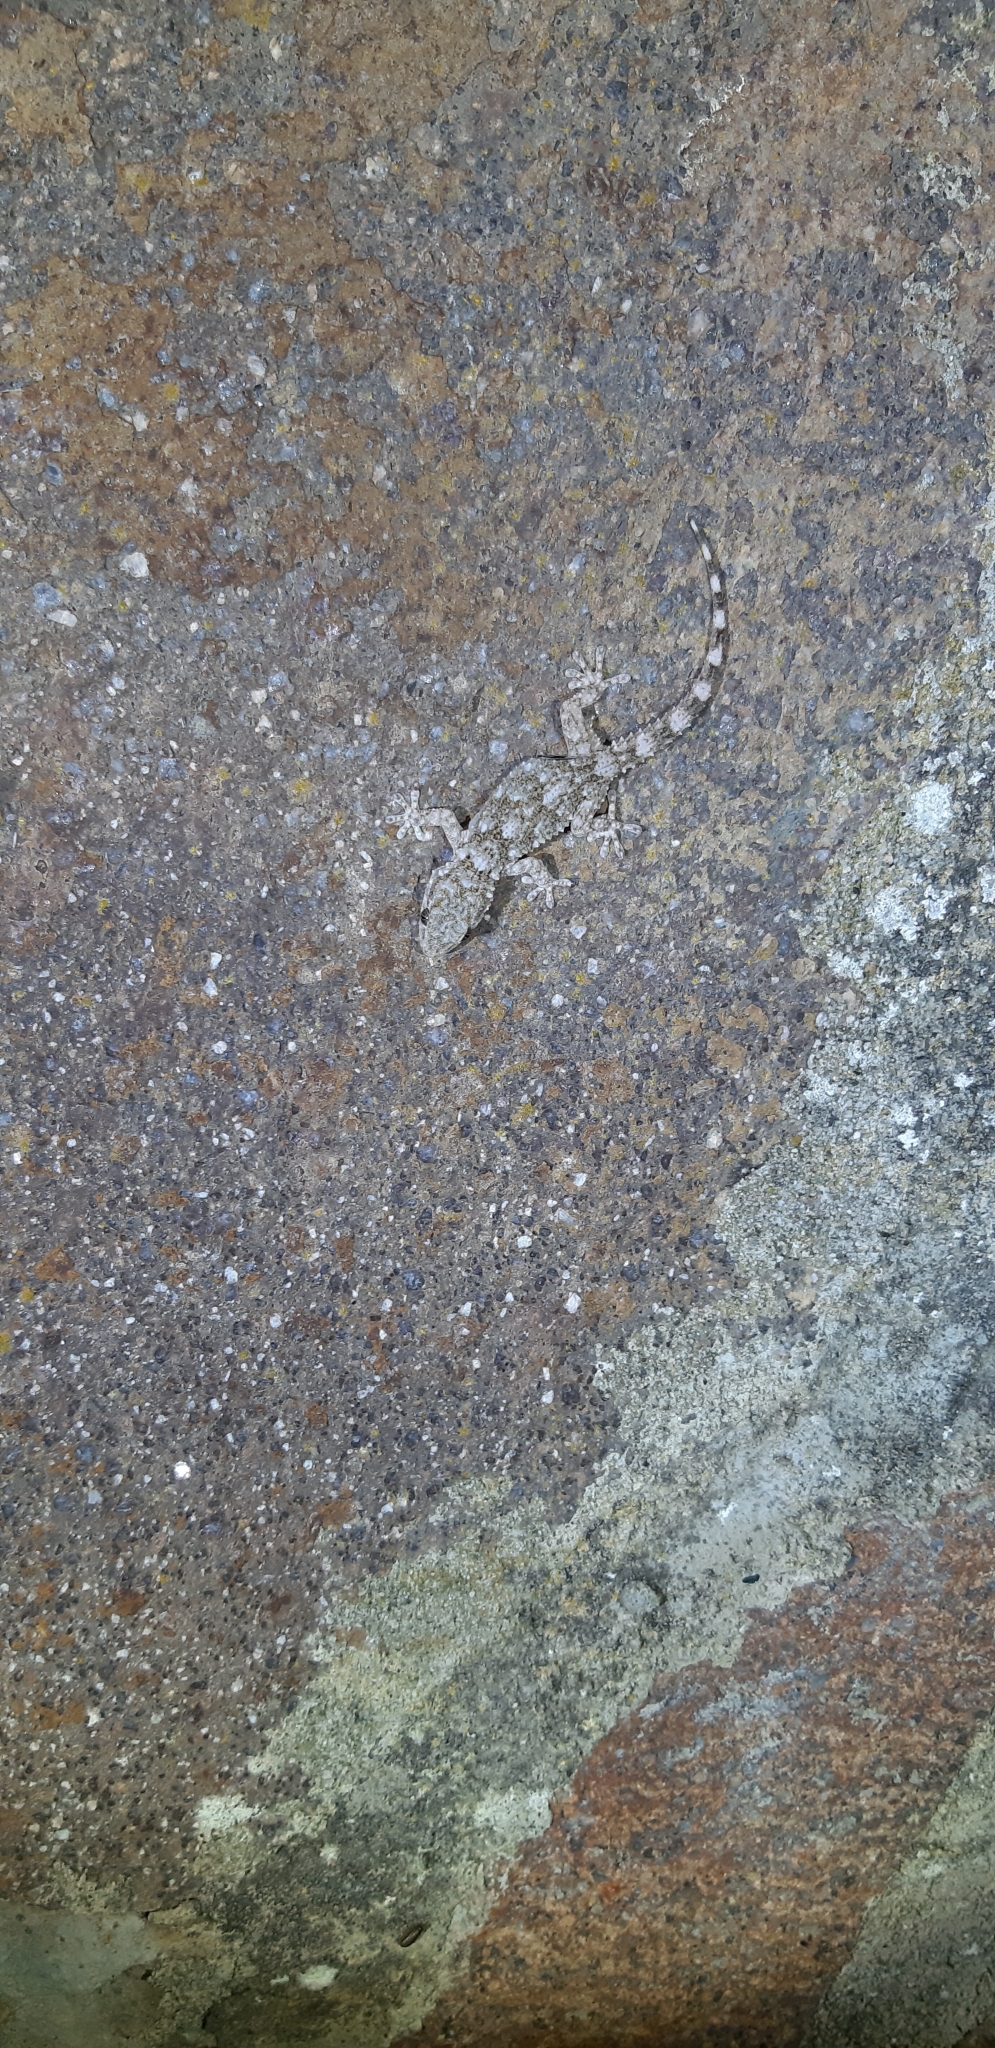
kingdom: Animalia
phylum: Chordata
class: Squamata
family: Phyllodactylidae
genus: Tarentola
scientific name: Tarentola mauritanica
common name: Moorish gecko
